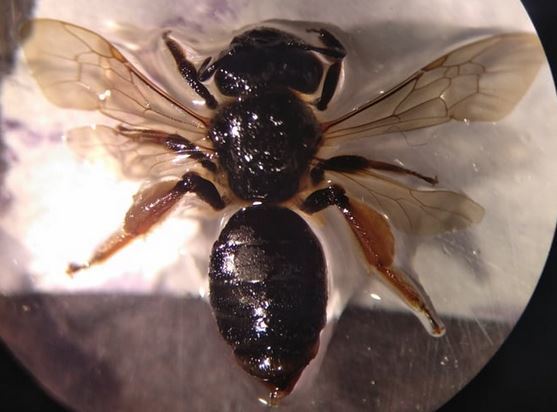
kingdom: Animalia
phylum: Arthropoda
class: Insecta
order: Hymenoptera
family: Andrenidae
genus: Andrena
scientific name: Andrena
